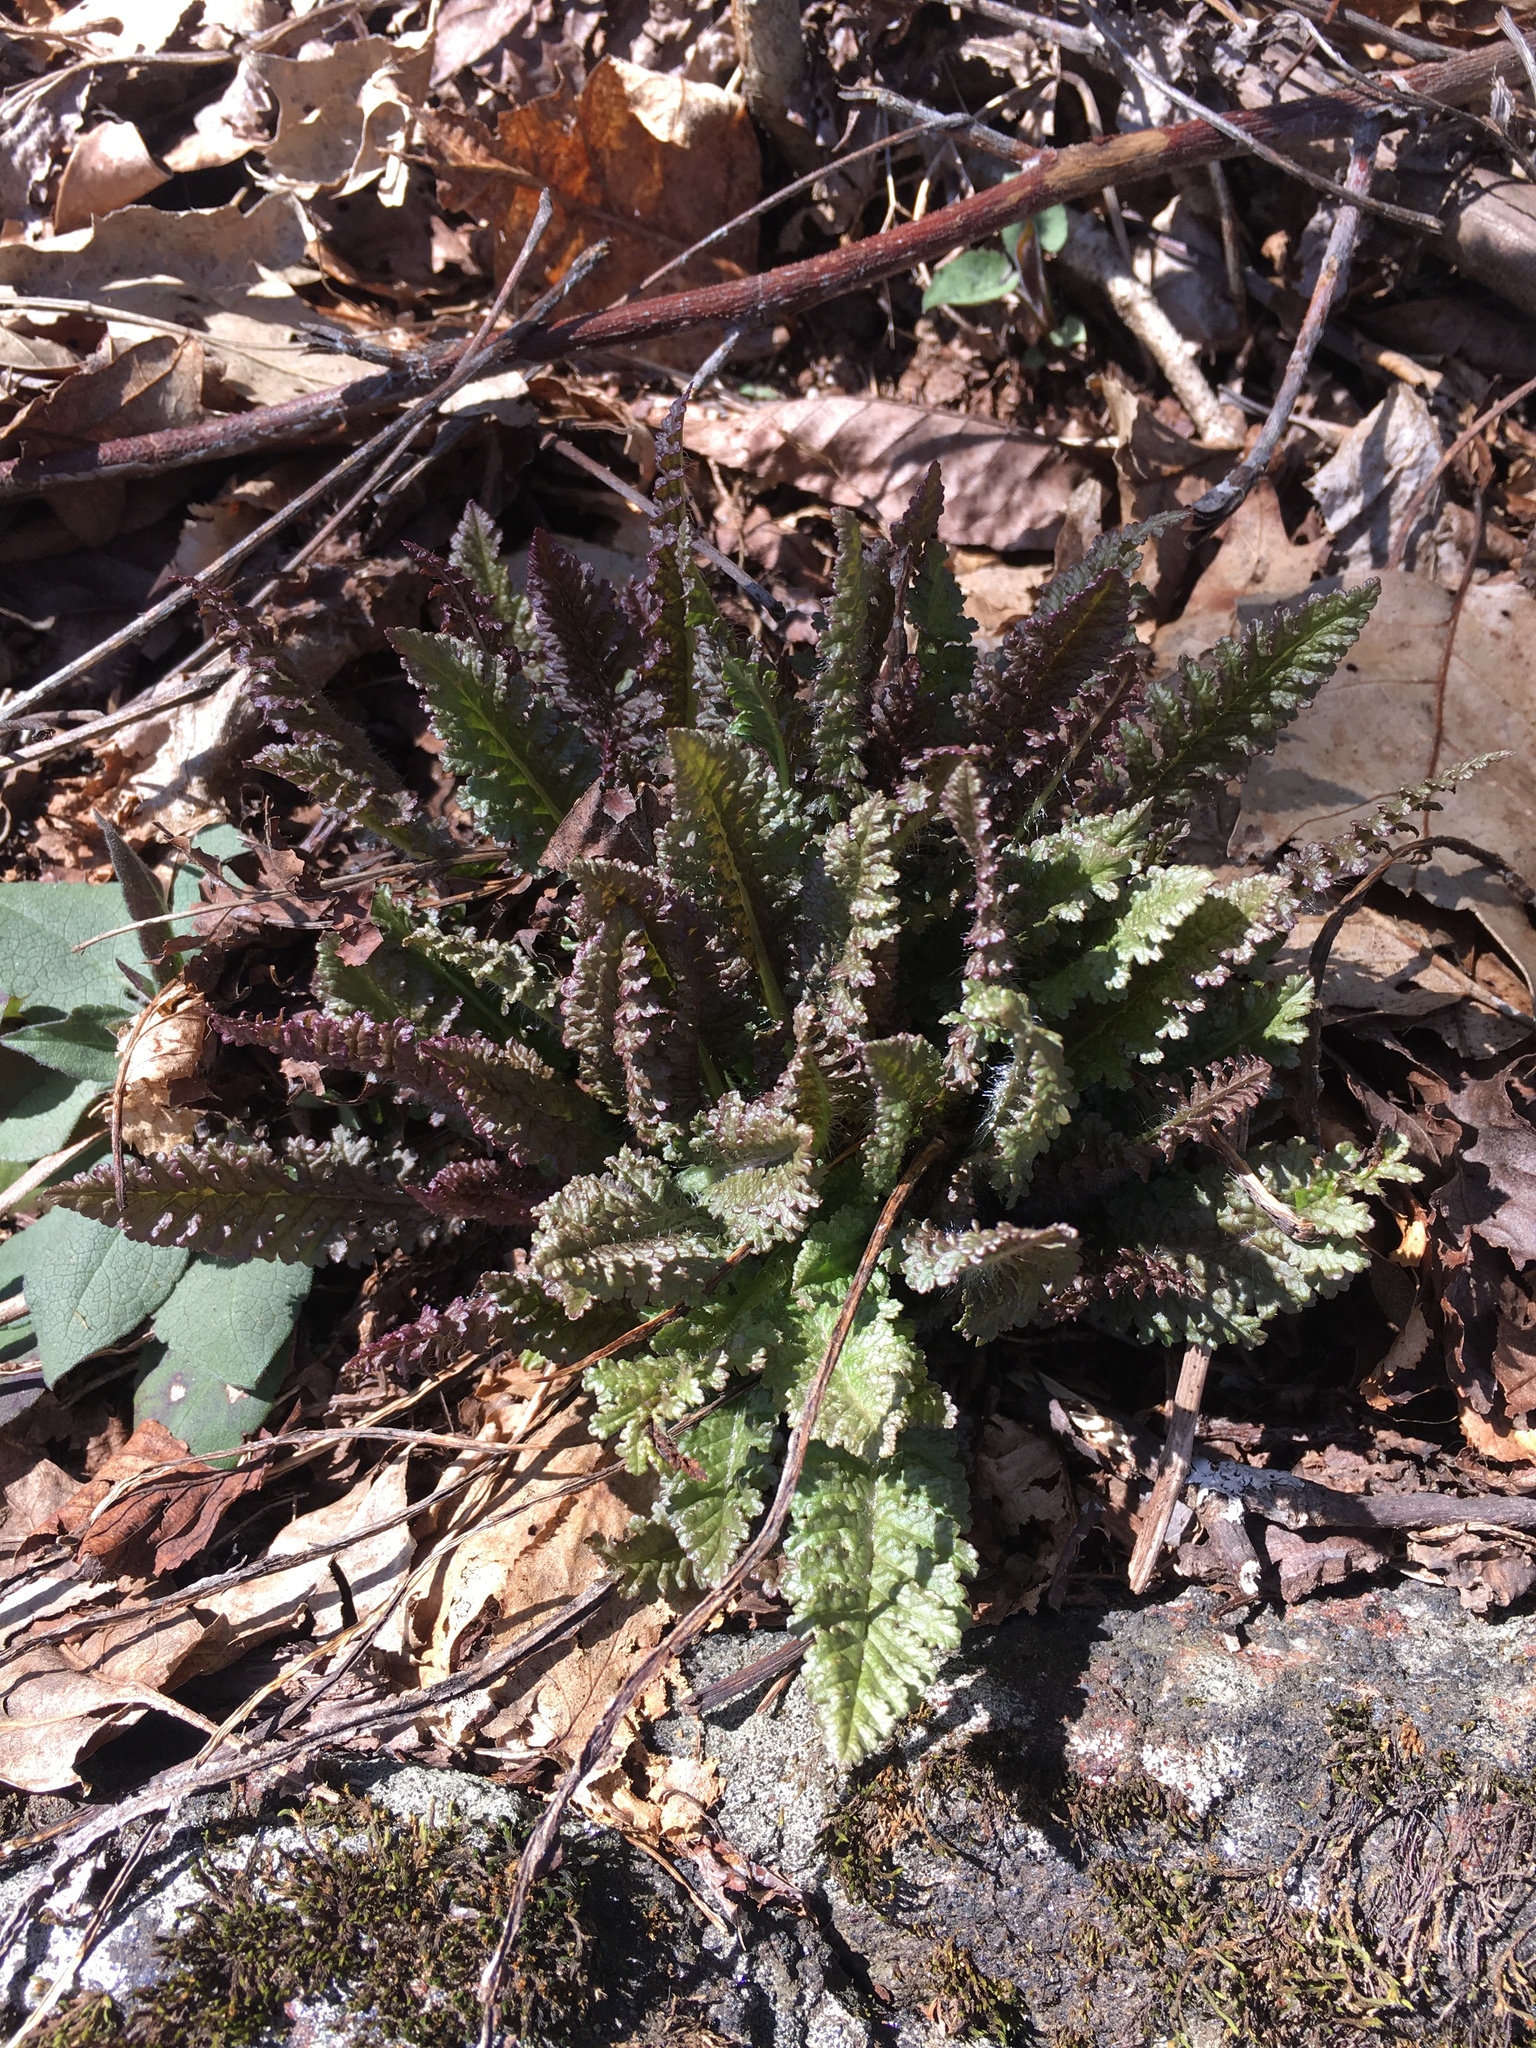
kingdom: Plantae
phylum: Tracheophyta
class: Magnoliopsida
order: Lamiales
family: Orobanchaceae
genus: Pedicularis
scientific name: Pedicularis canadensis
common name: Early lousewort
